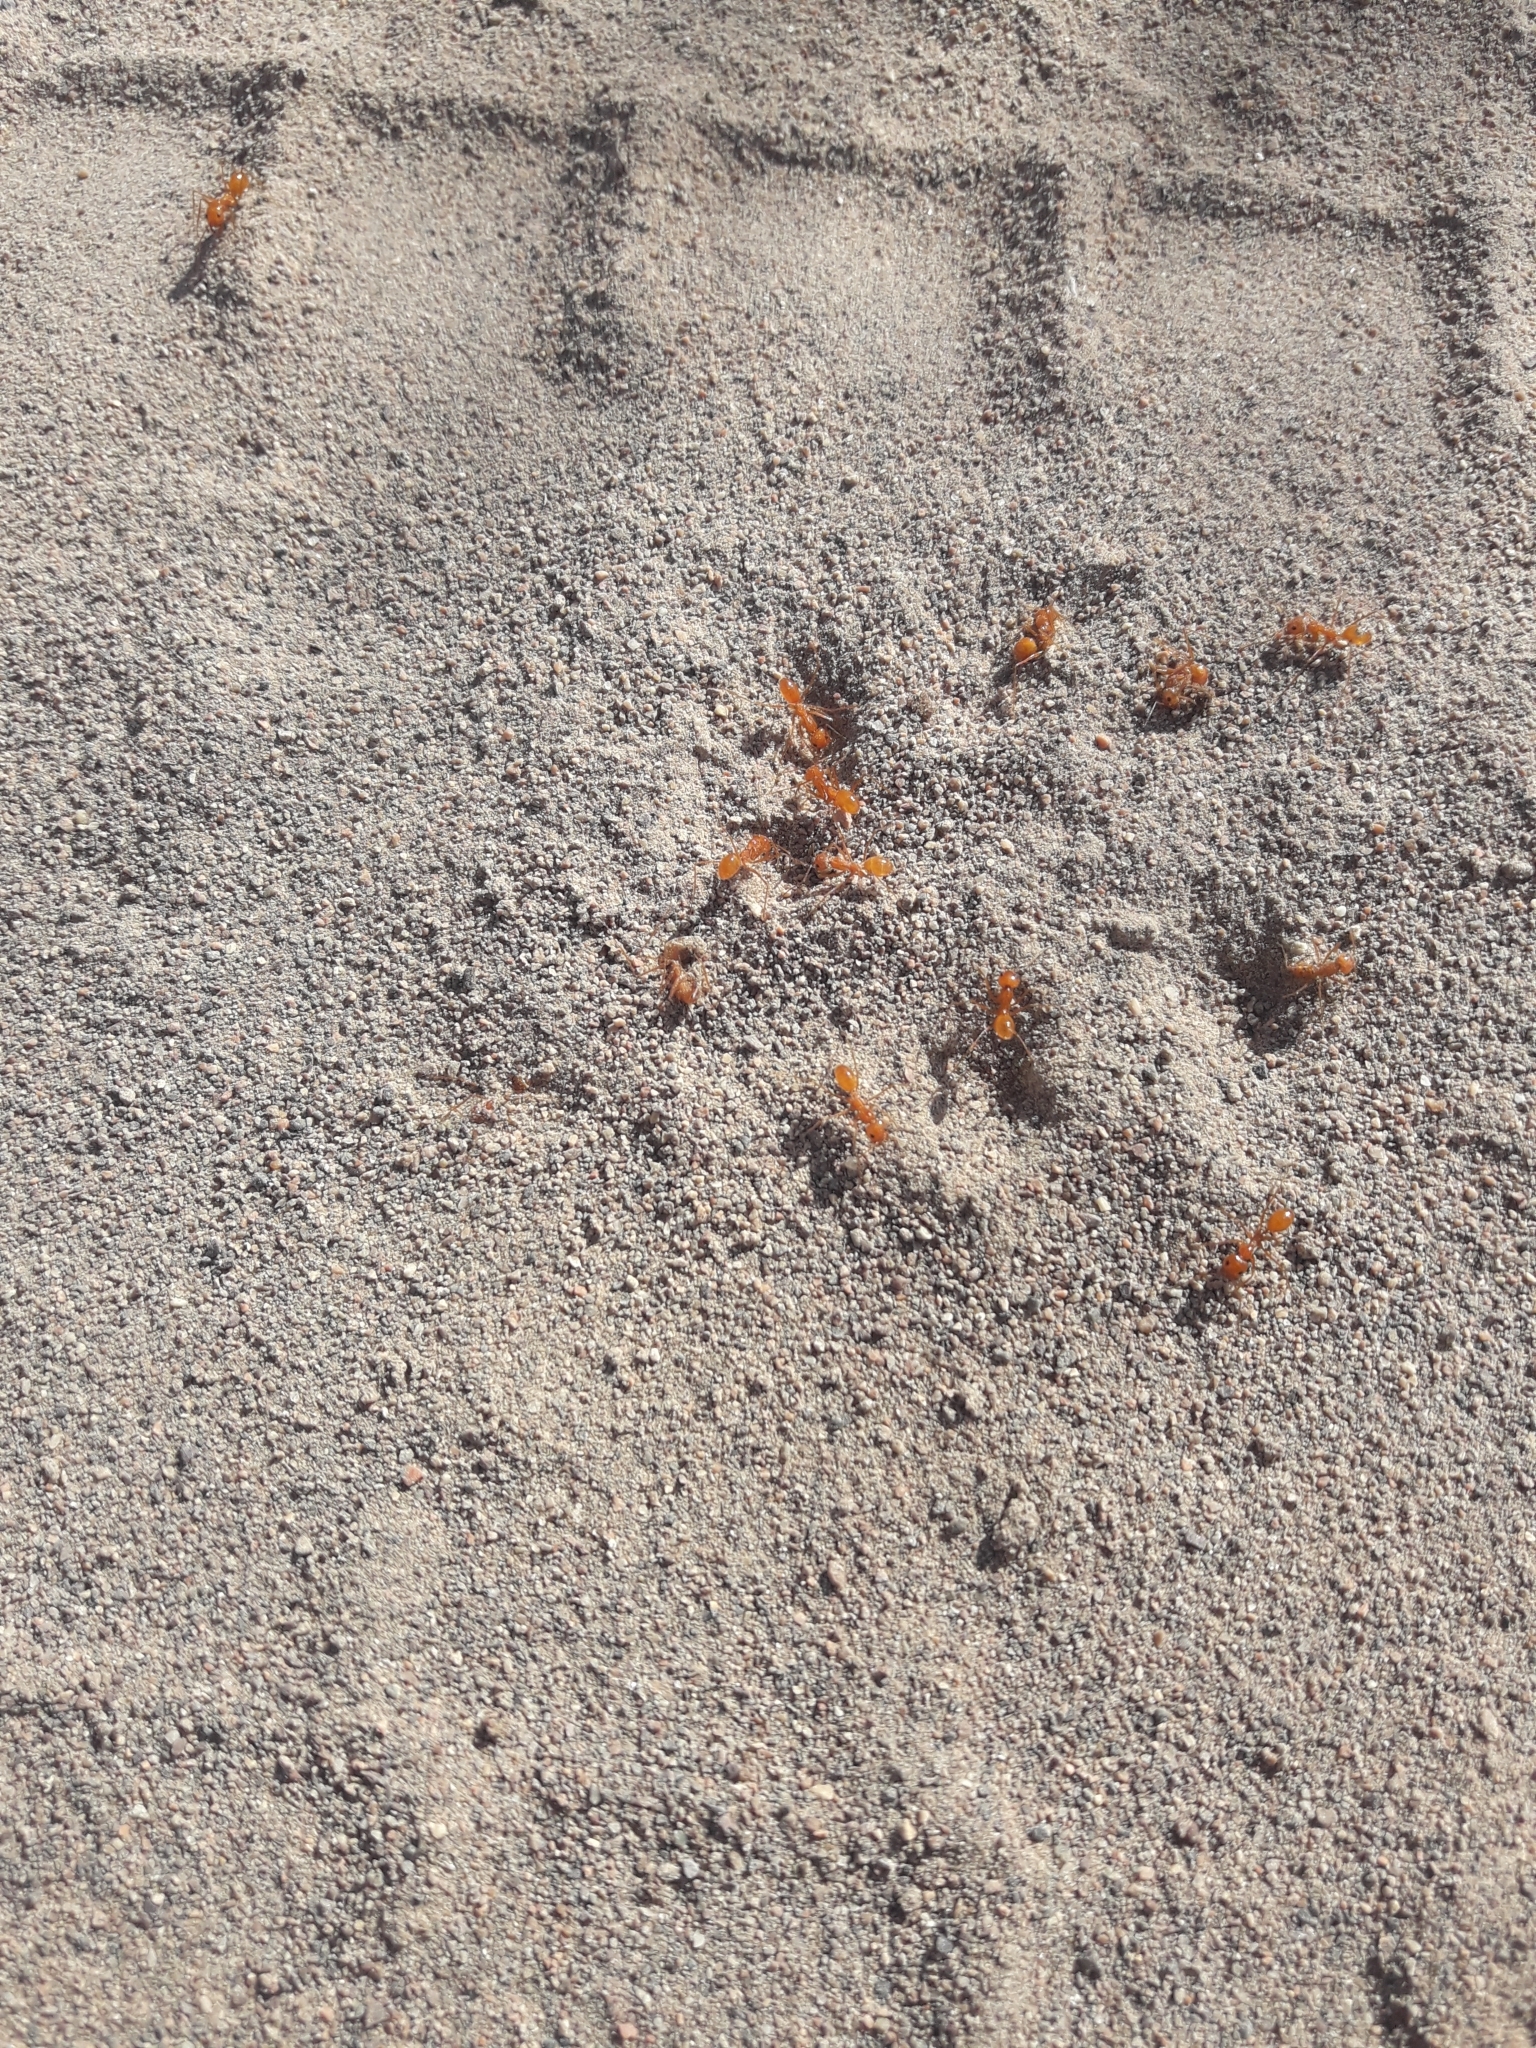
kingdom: Animalia
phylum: Arthropoda
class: Insecta
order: Hymenoptera
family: Formicidae
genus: Dorymyrmex
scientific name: Dorymyrmex planidens
